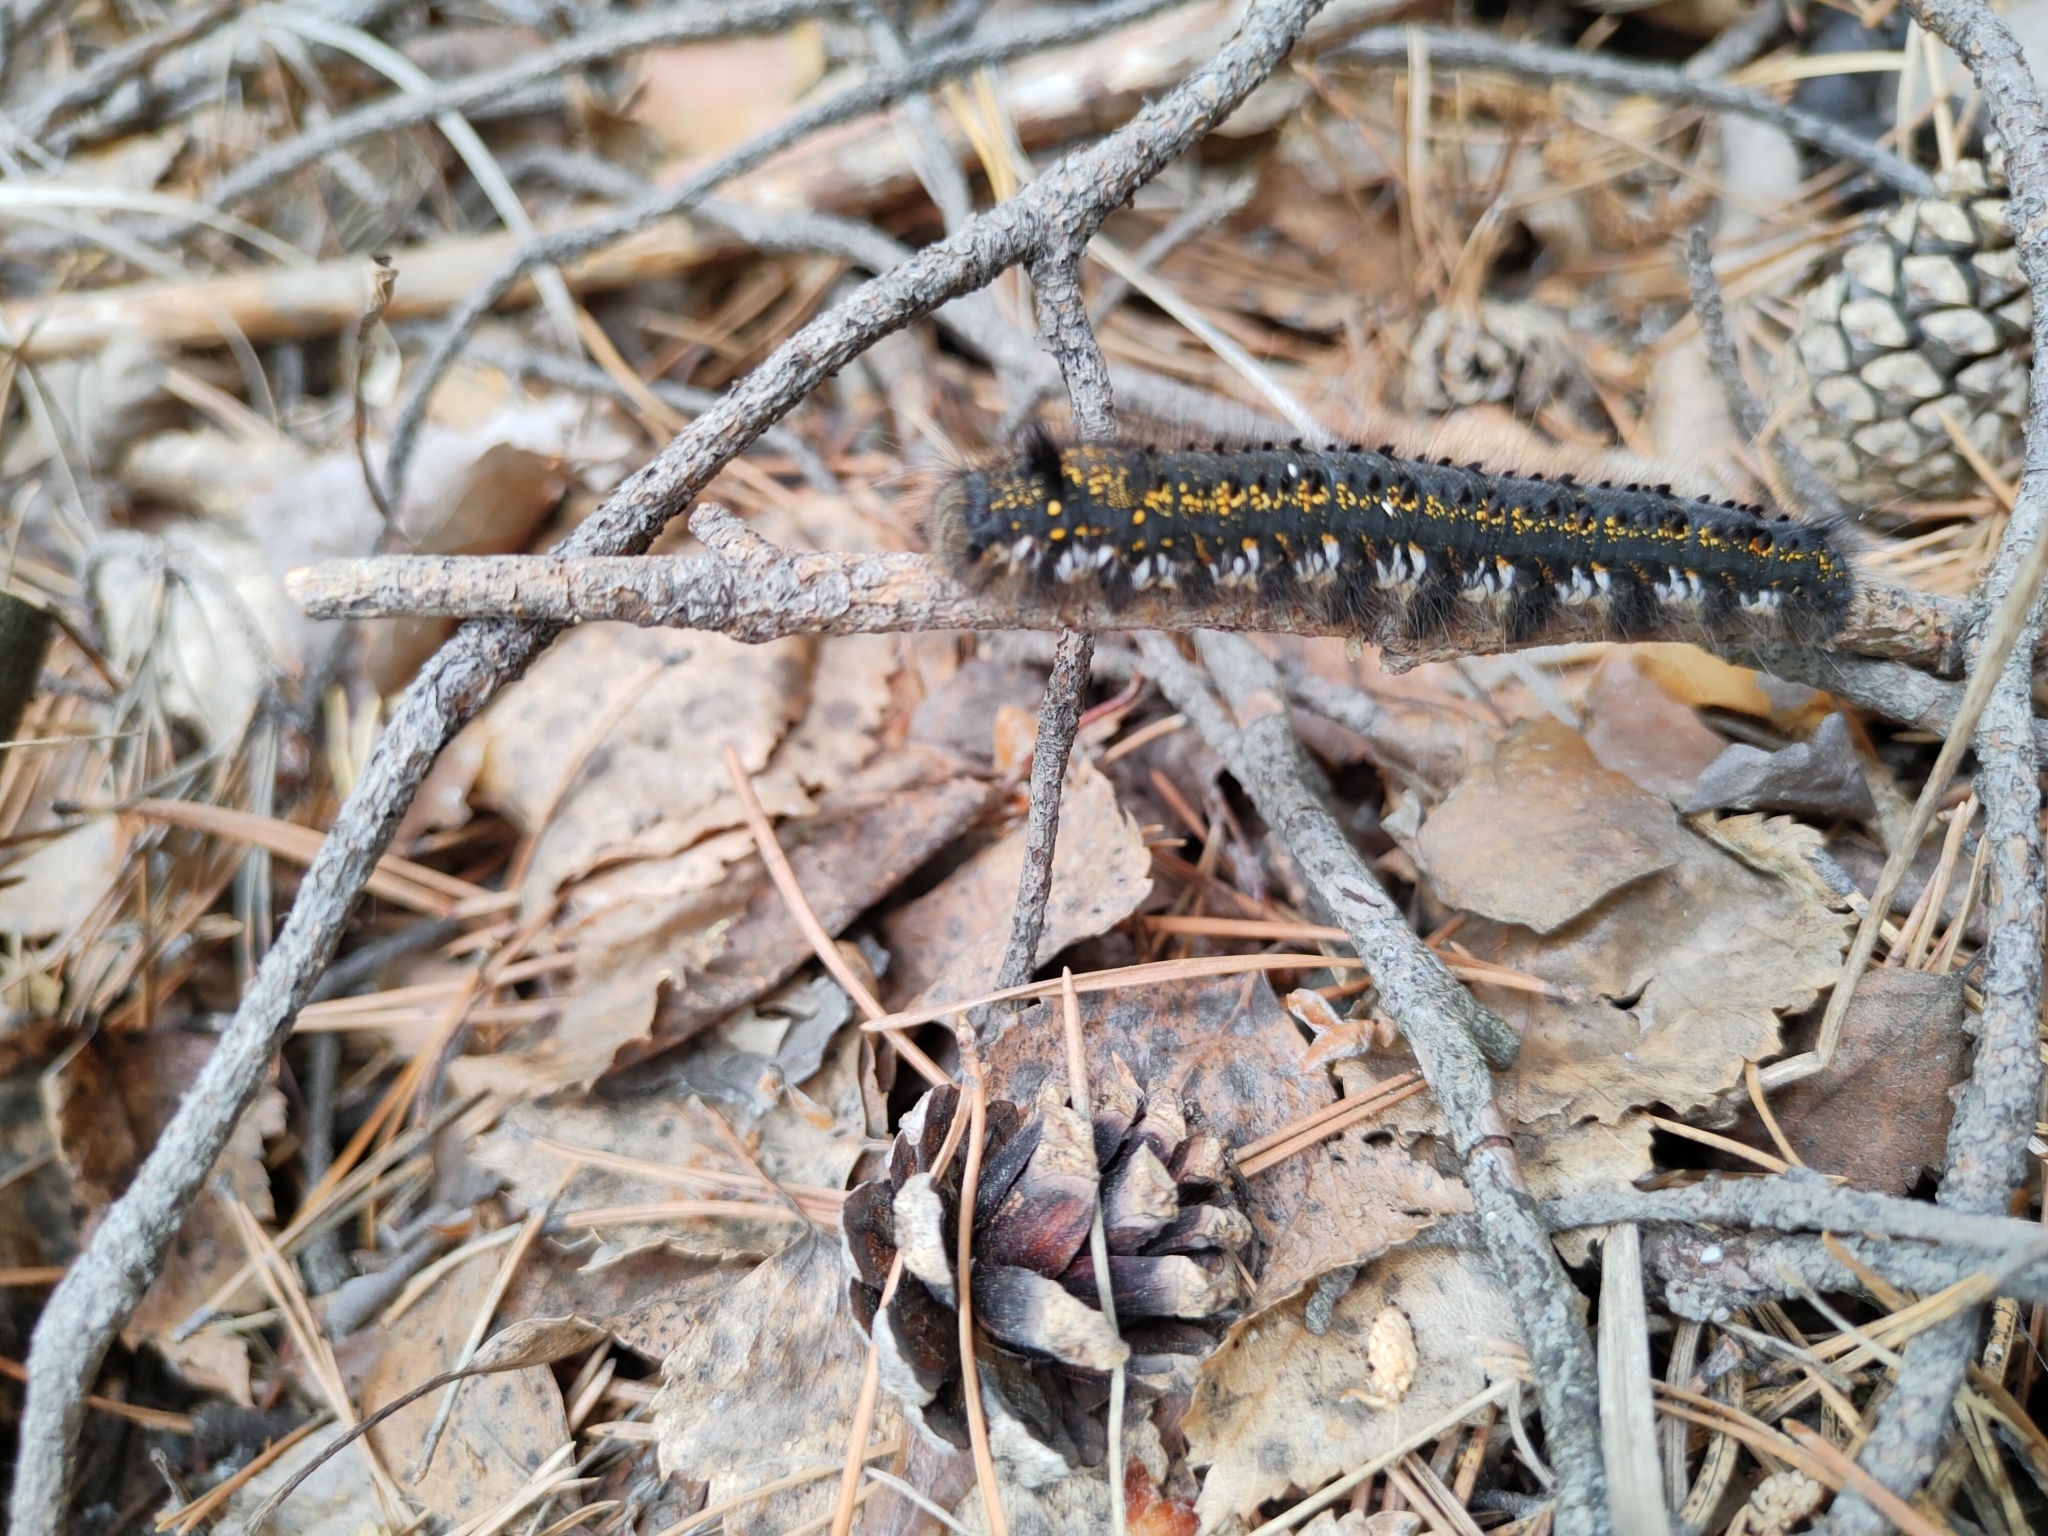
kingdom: Animalia
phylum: Arthropoda
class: Insecta
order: Lepidoptera
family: Lasiocampidae
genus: Euthrix
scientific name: Euthrix potatoria
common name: Drinker
